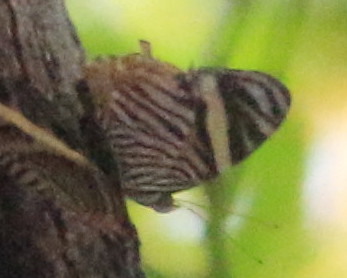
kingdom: Animalia
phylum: Arthropoda
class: Insecta
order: Lepidoptera
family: Nymphalidae
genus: Callizona
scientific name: Callizona acesta
